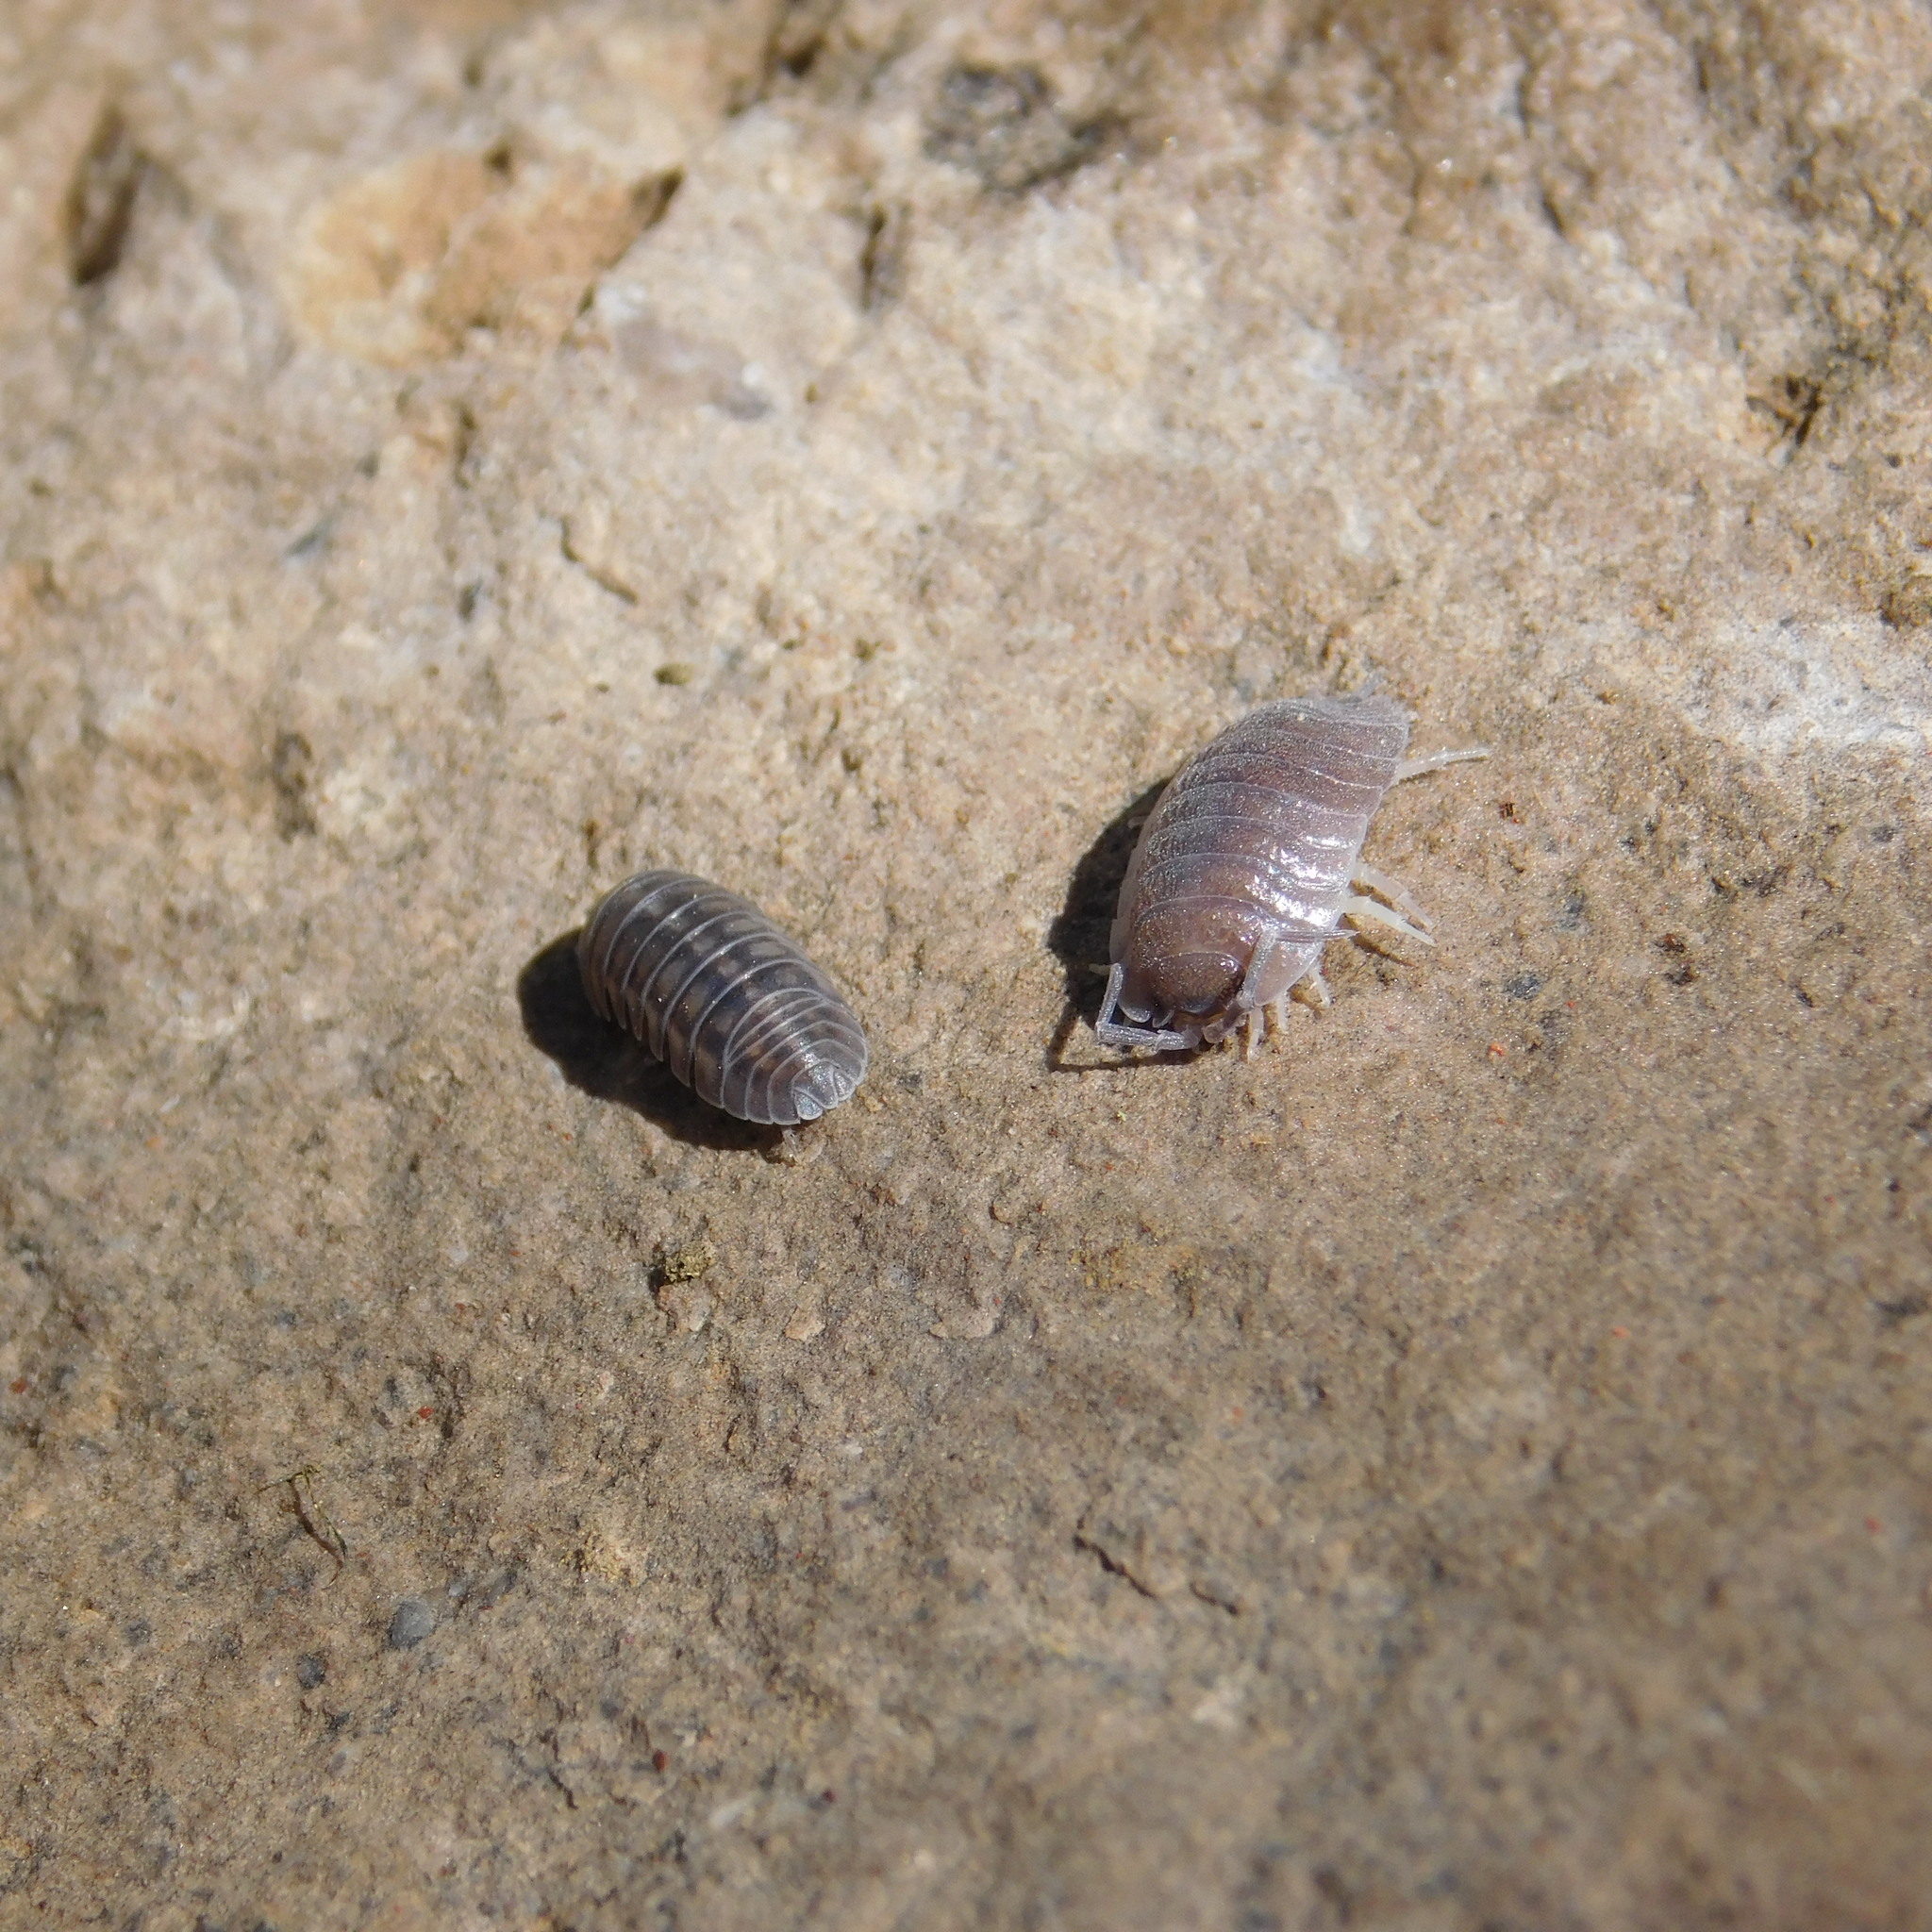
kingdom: Animalia
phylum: Arthropoda
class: Malacostraca
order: Isopoda
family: Porcellionidae
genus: Porcellio
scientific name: Porcellio laevis
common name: Swift woodlouse
